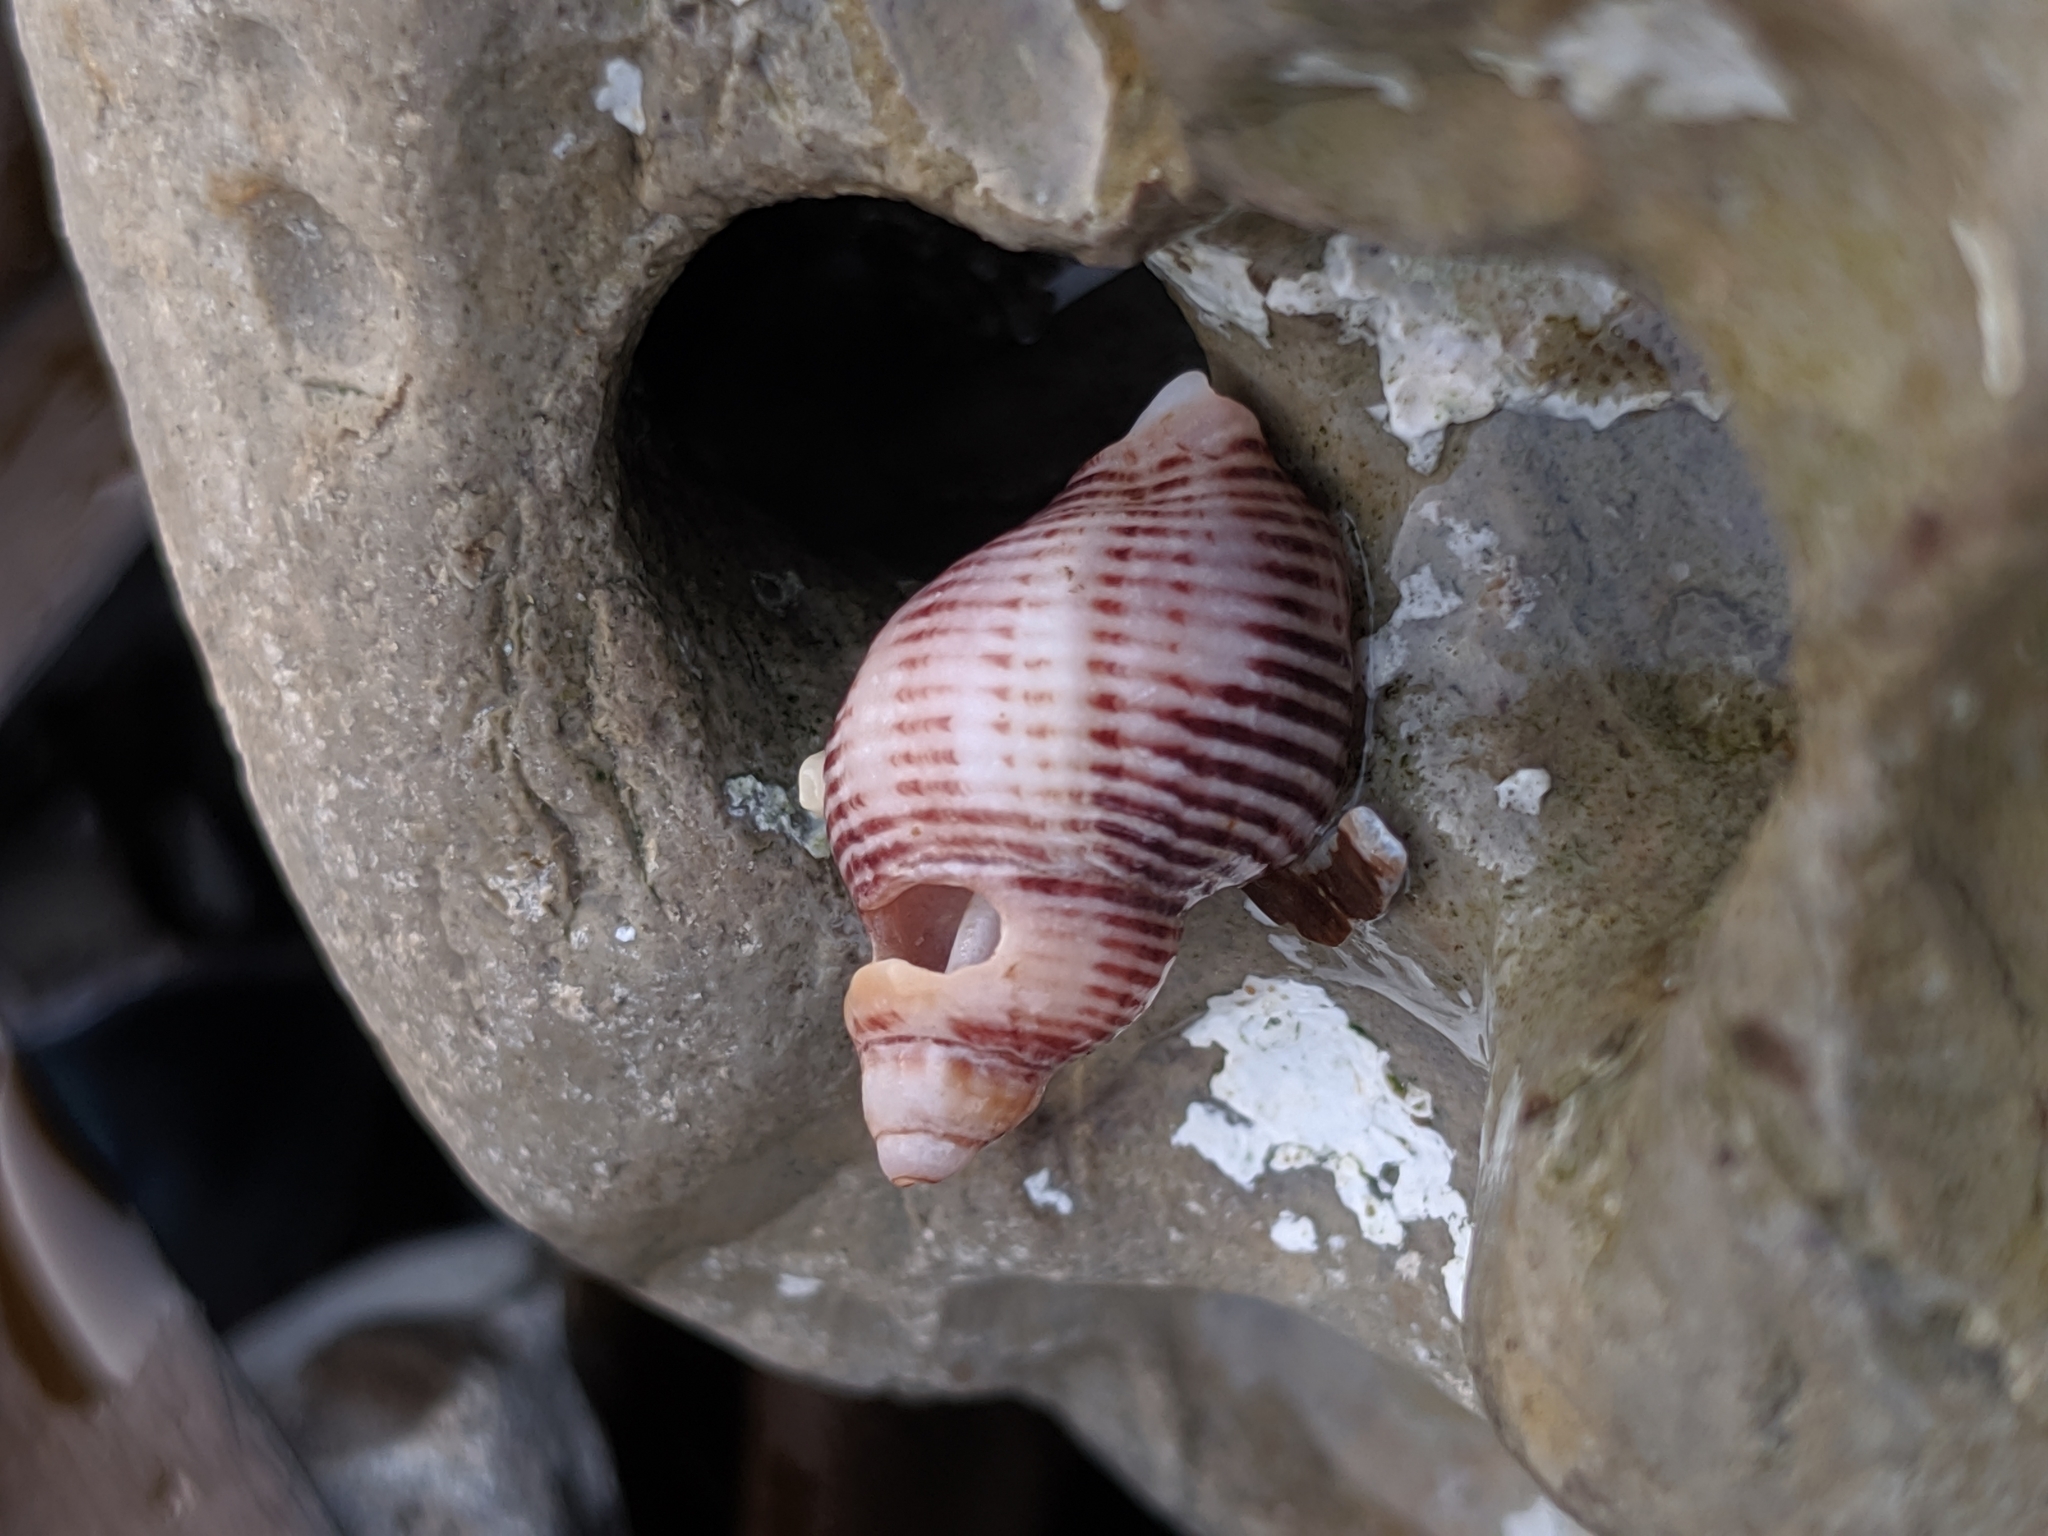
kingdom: Animalia
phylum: Mollusca
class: Gastropoda
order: Neogastropoda
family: Muricidae
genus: Paciocinebrina
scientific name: Paciocinebrina lurida
